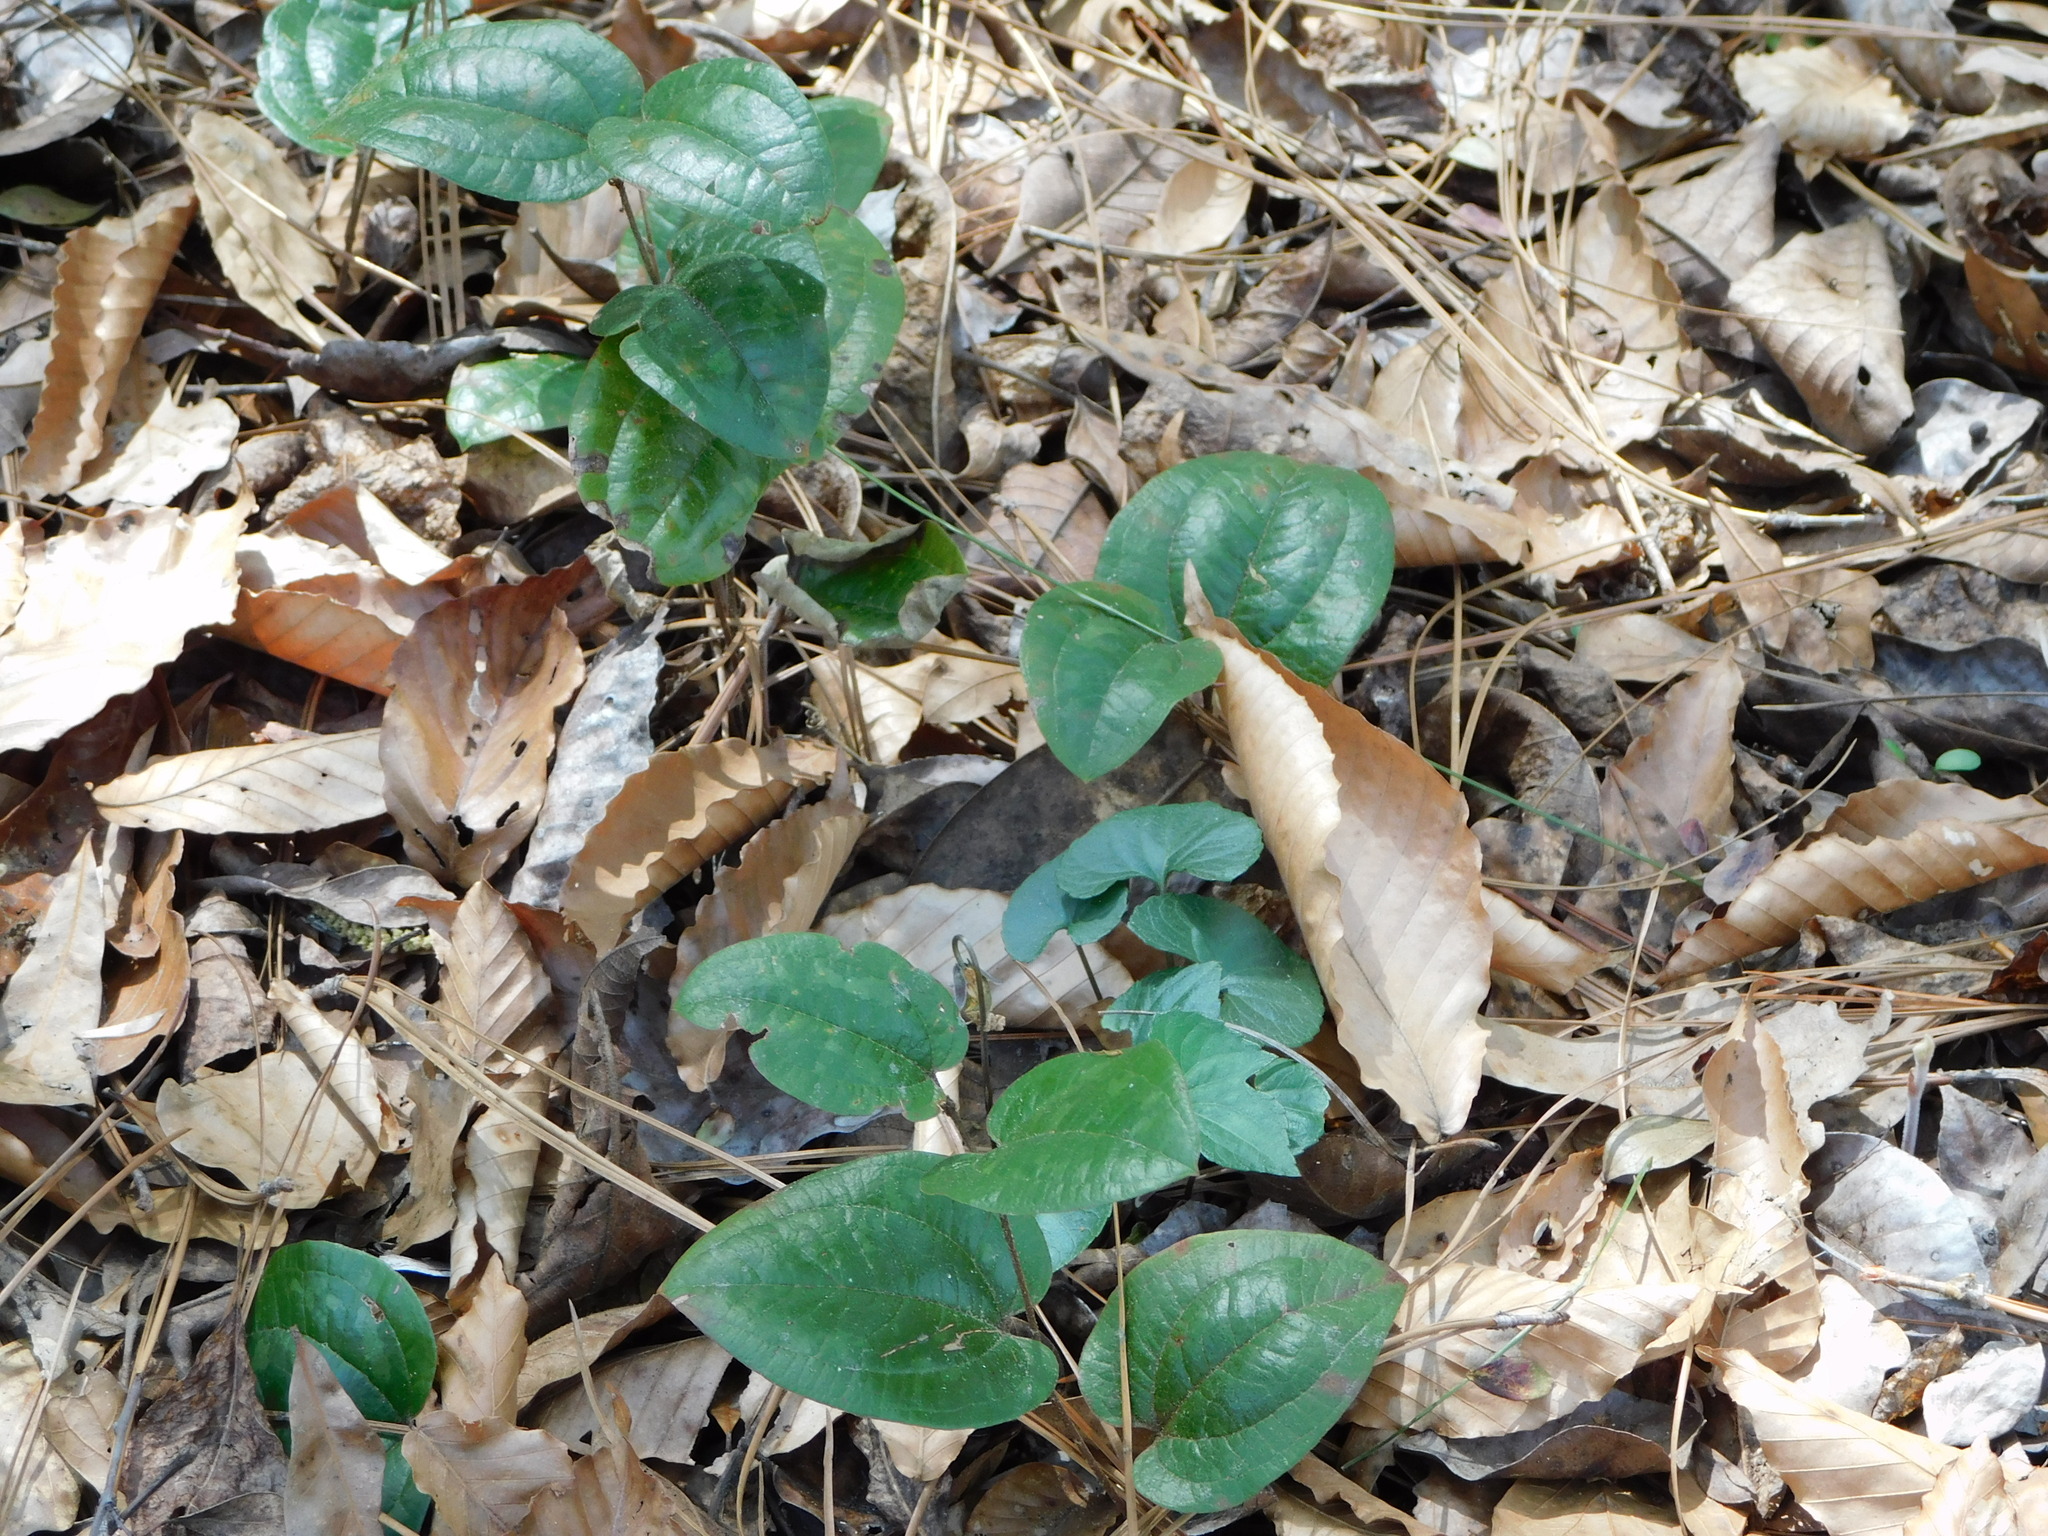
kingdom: Plantae
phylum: Tracheophyta
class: Liliopsida
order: Liliales
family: Smilacaceae
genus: Smilax
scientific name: Smilax pumila
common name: Sarsaparilla-vine
